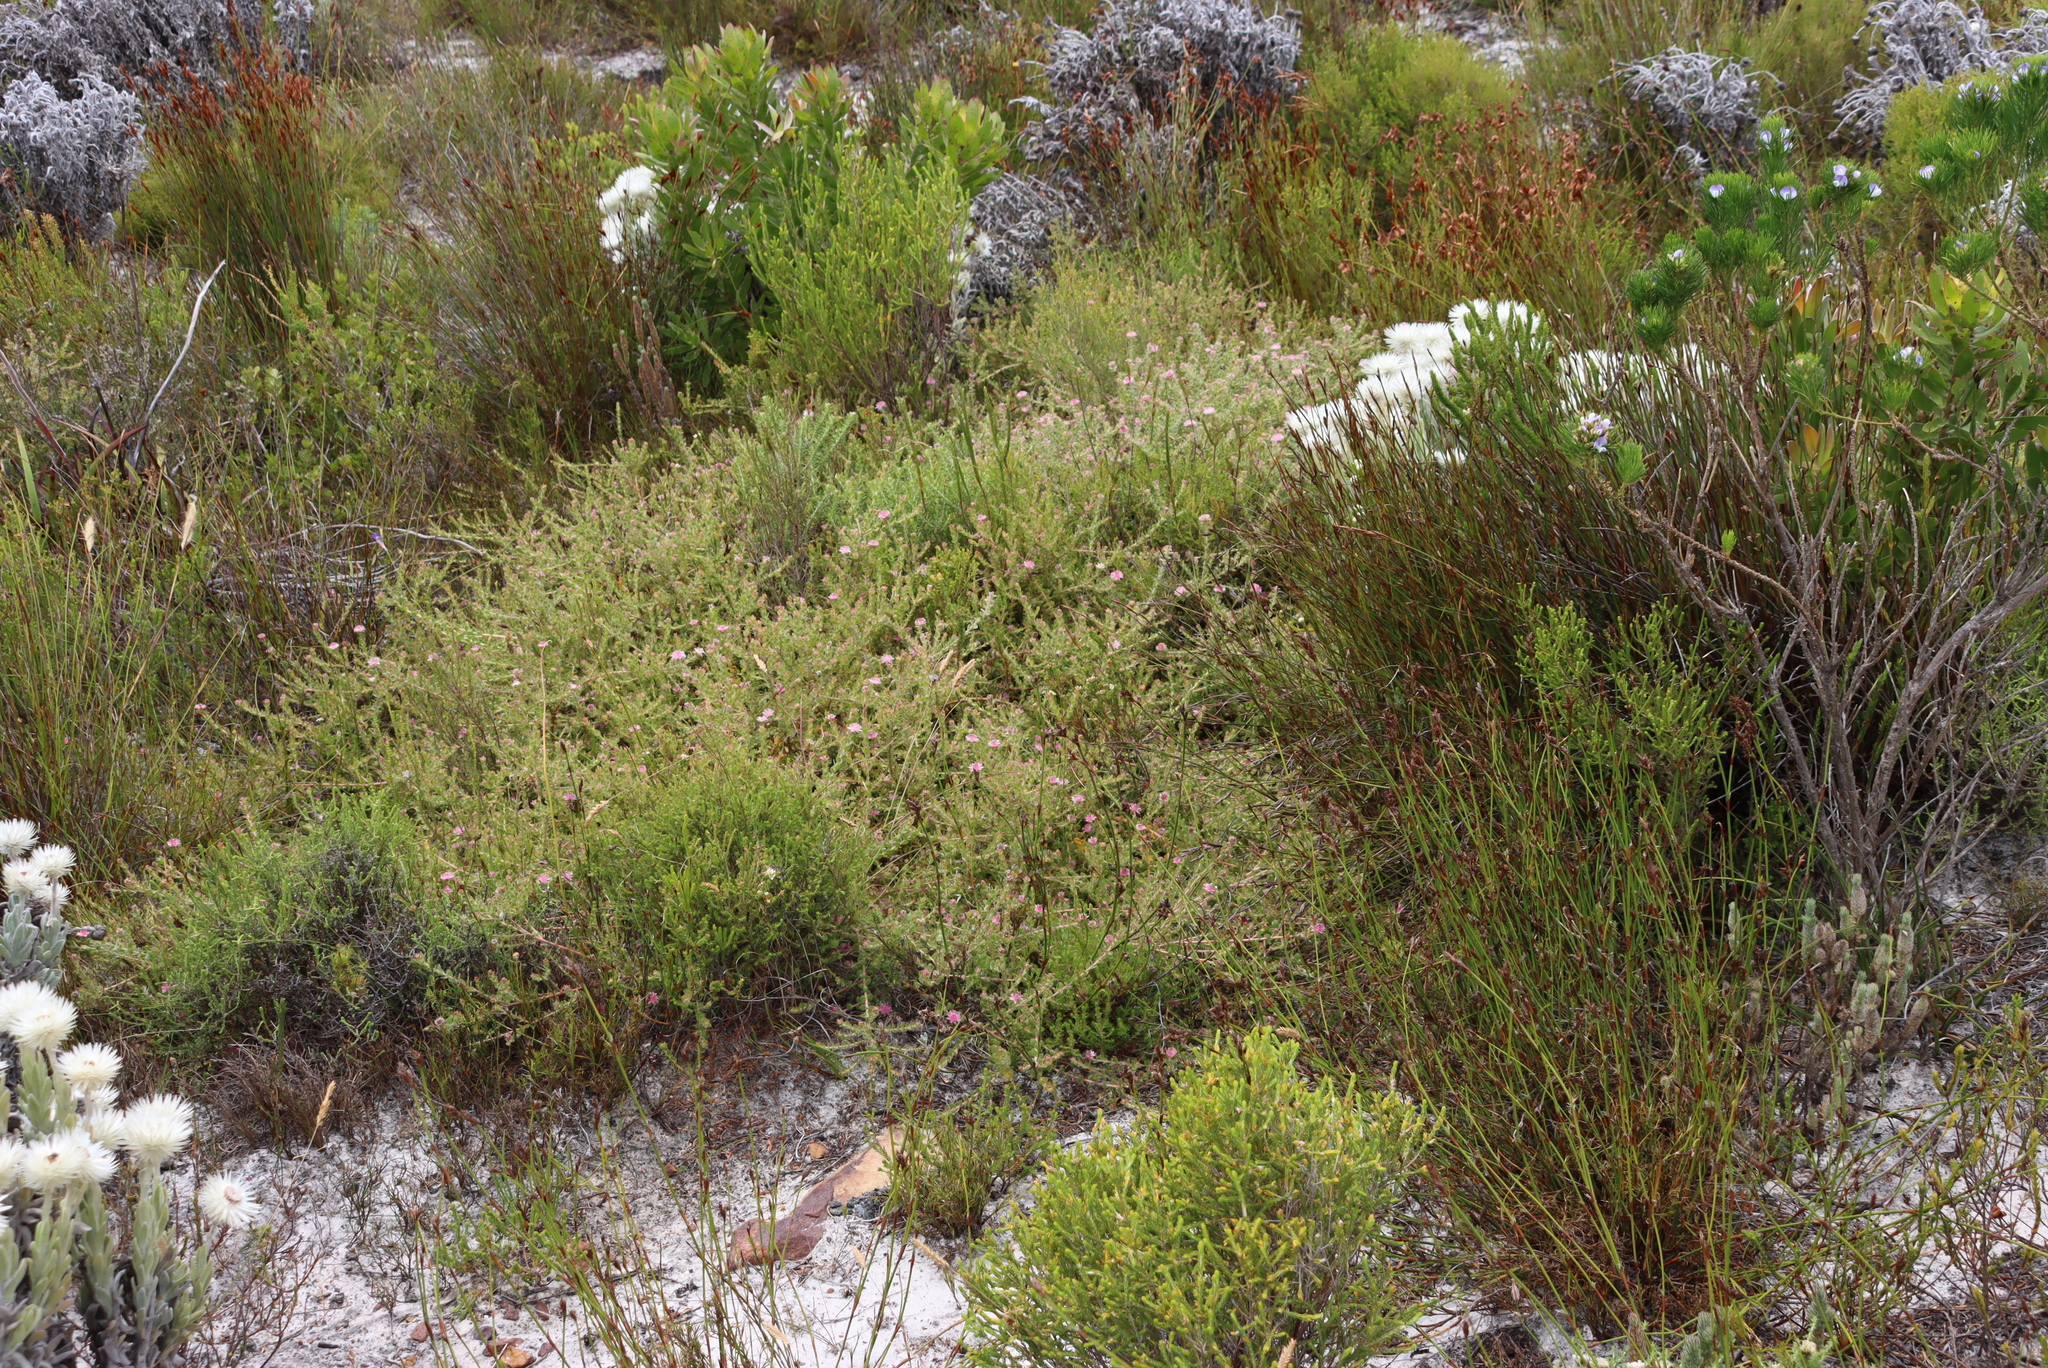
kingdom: Plantae
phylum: Tracheophyta
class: Magnoliopsida
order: Proteales
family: Proteaceae
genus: Diastella
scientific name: Diastella divaricata
